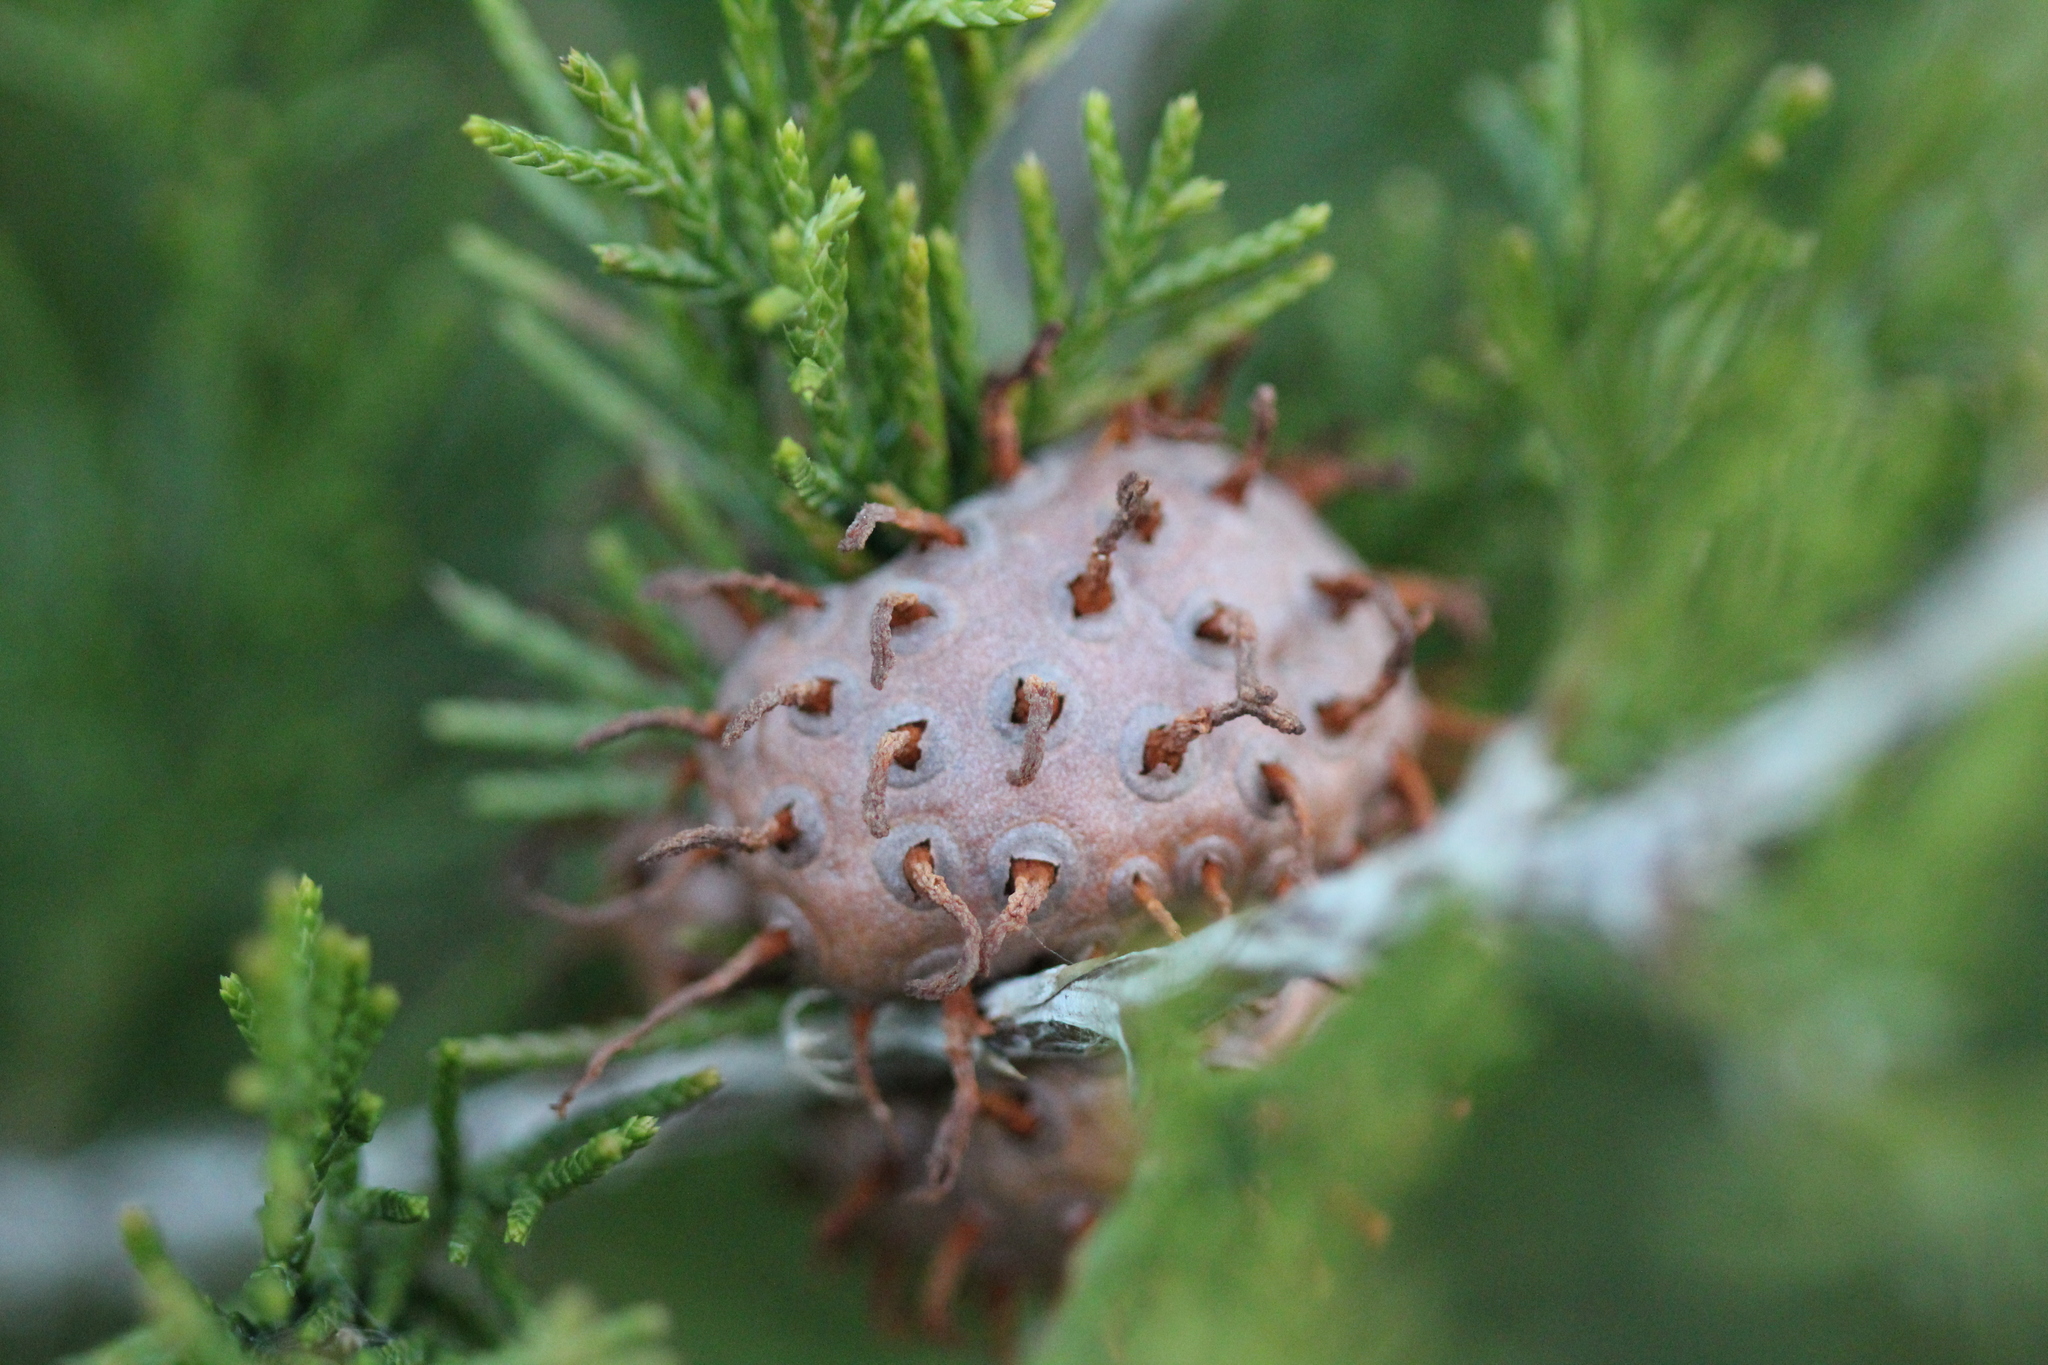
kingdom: Fungi
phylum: Basidiomycota
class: Pucciniomycetes
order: Pucciniales
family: Gymnosporangiaceae
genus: Gymnosporangium
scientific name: Gymnosporangium juniperi-virginianae
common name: Juniper-apple rust
